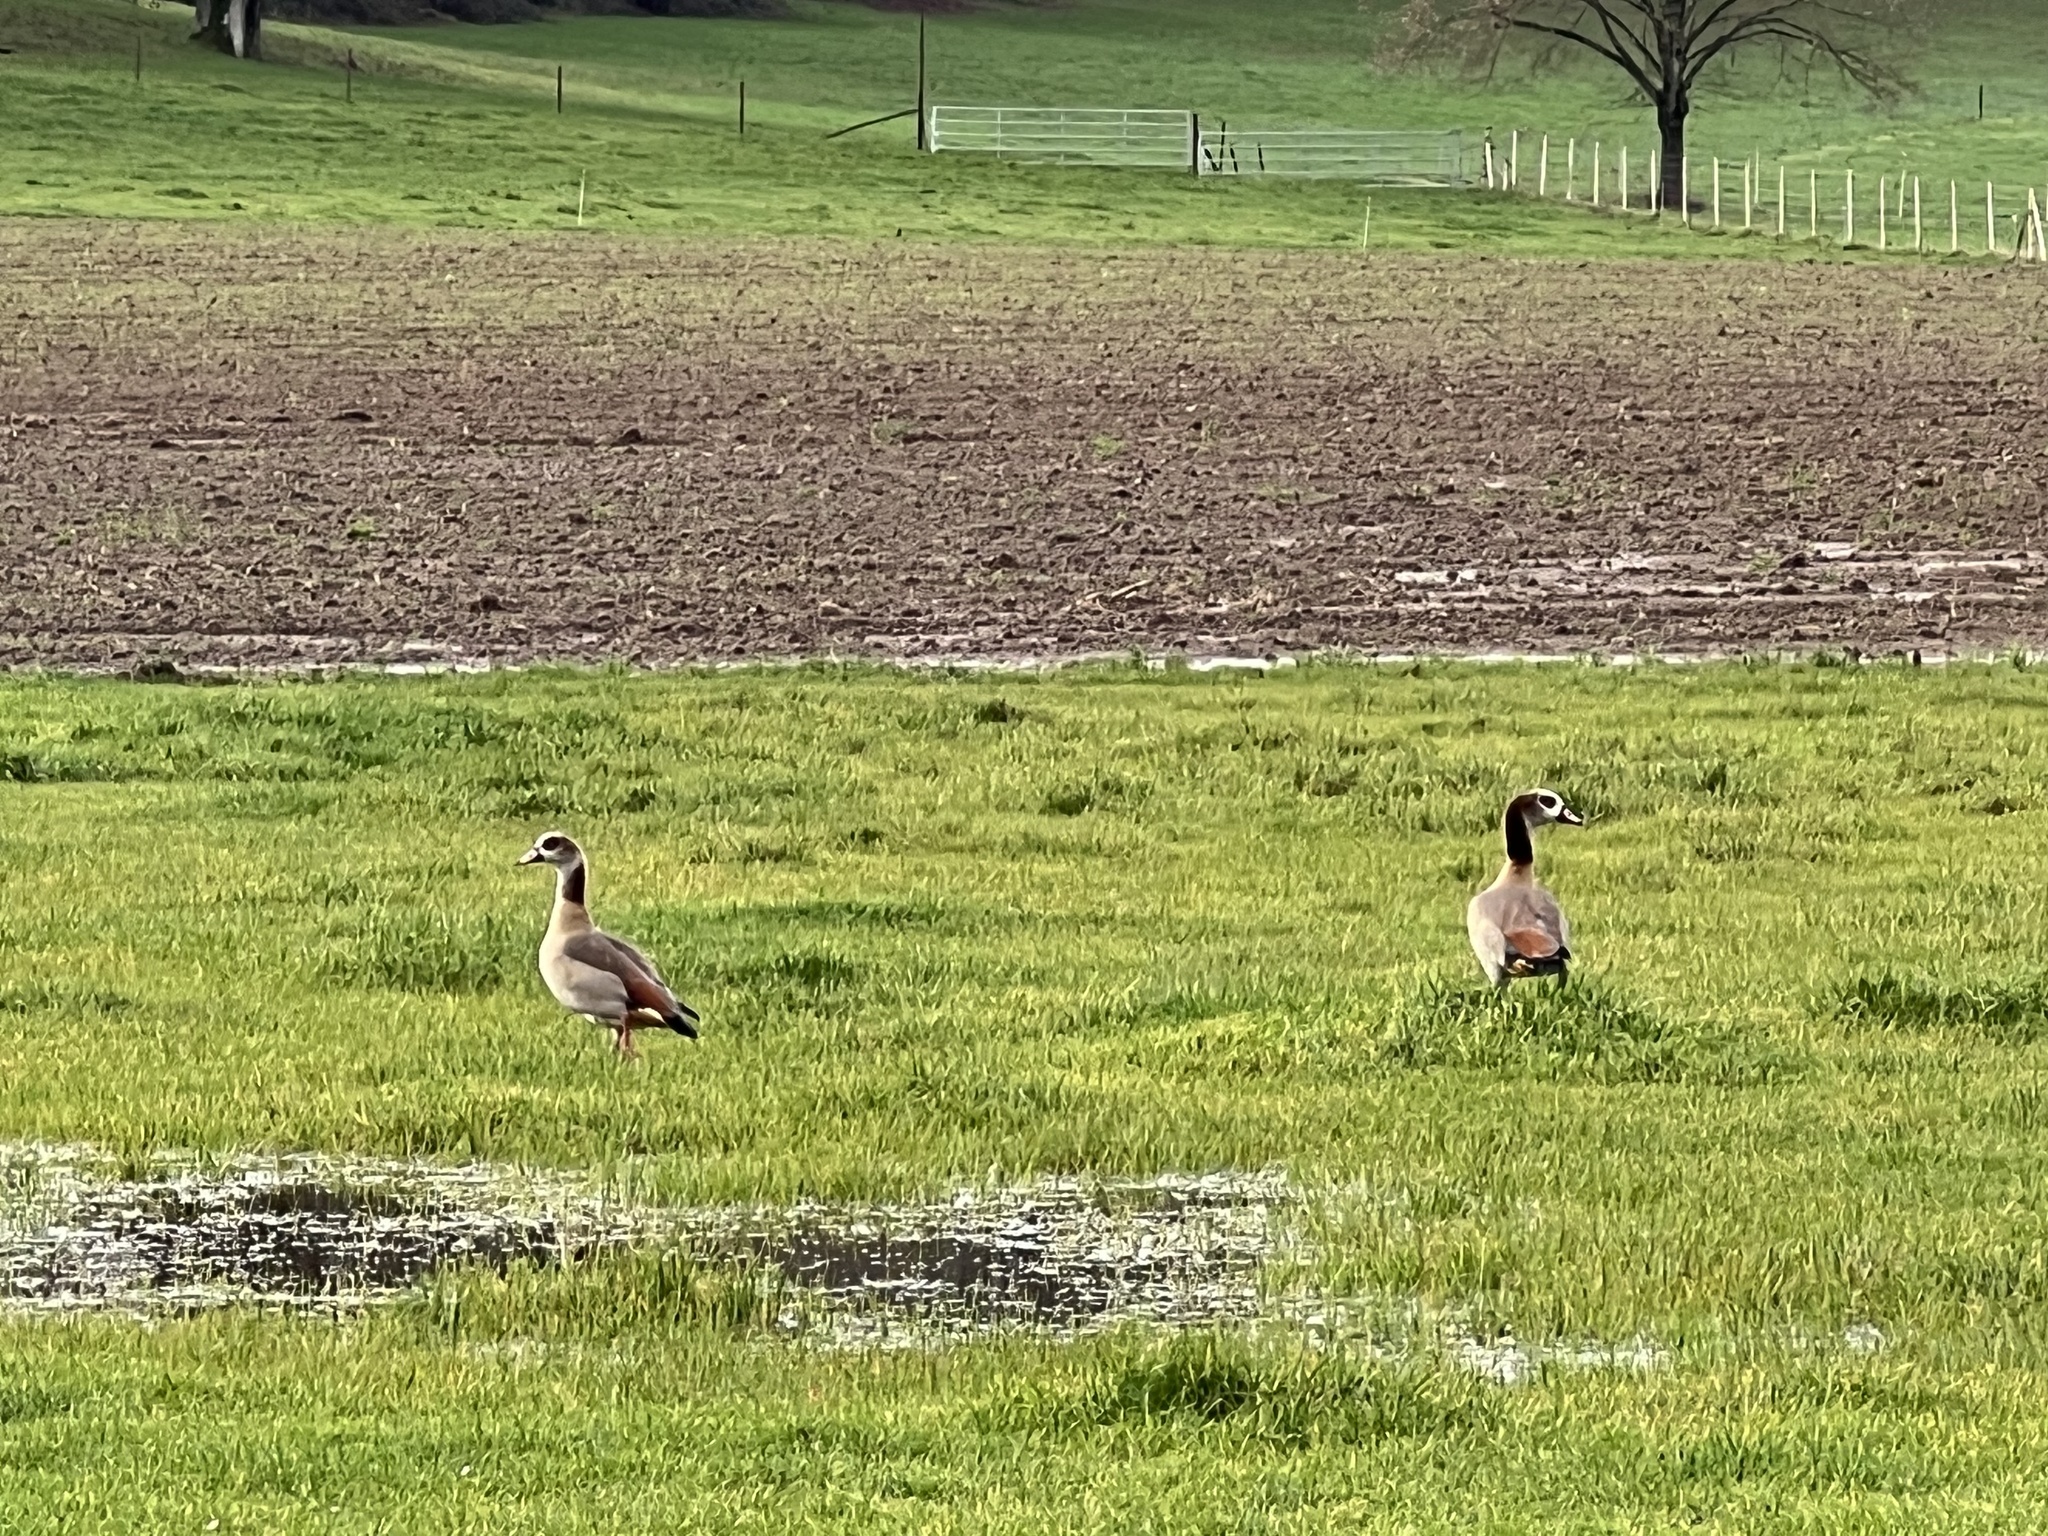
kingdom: Animalia
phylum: Chordata
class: Aves
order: Anseriformes
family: Anatidae
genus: Alopochen
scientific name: Alopochen aegyptiaca
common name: Egyptian goose
